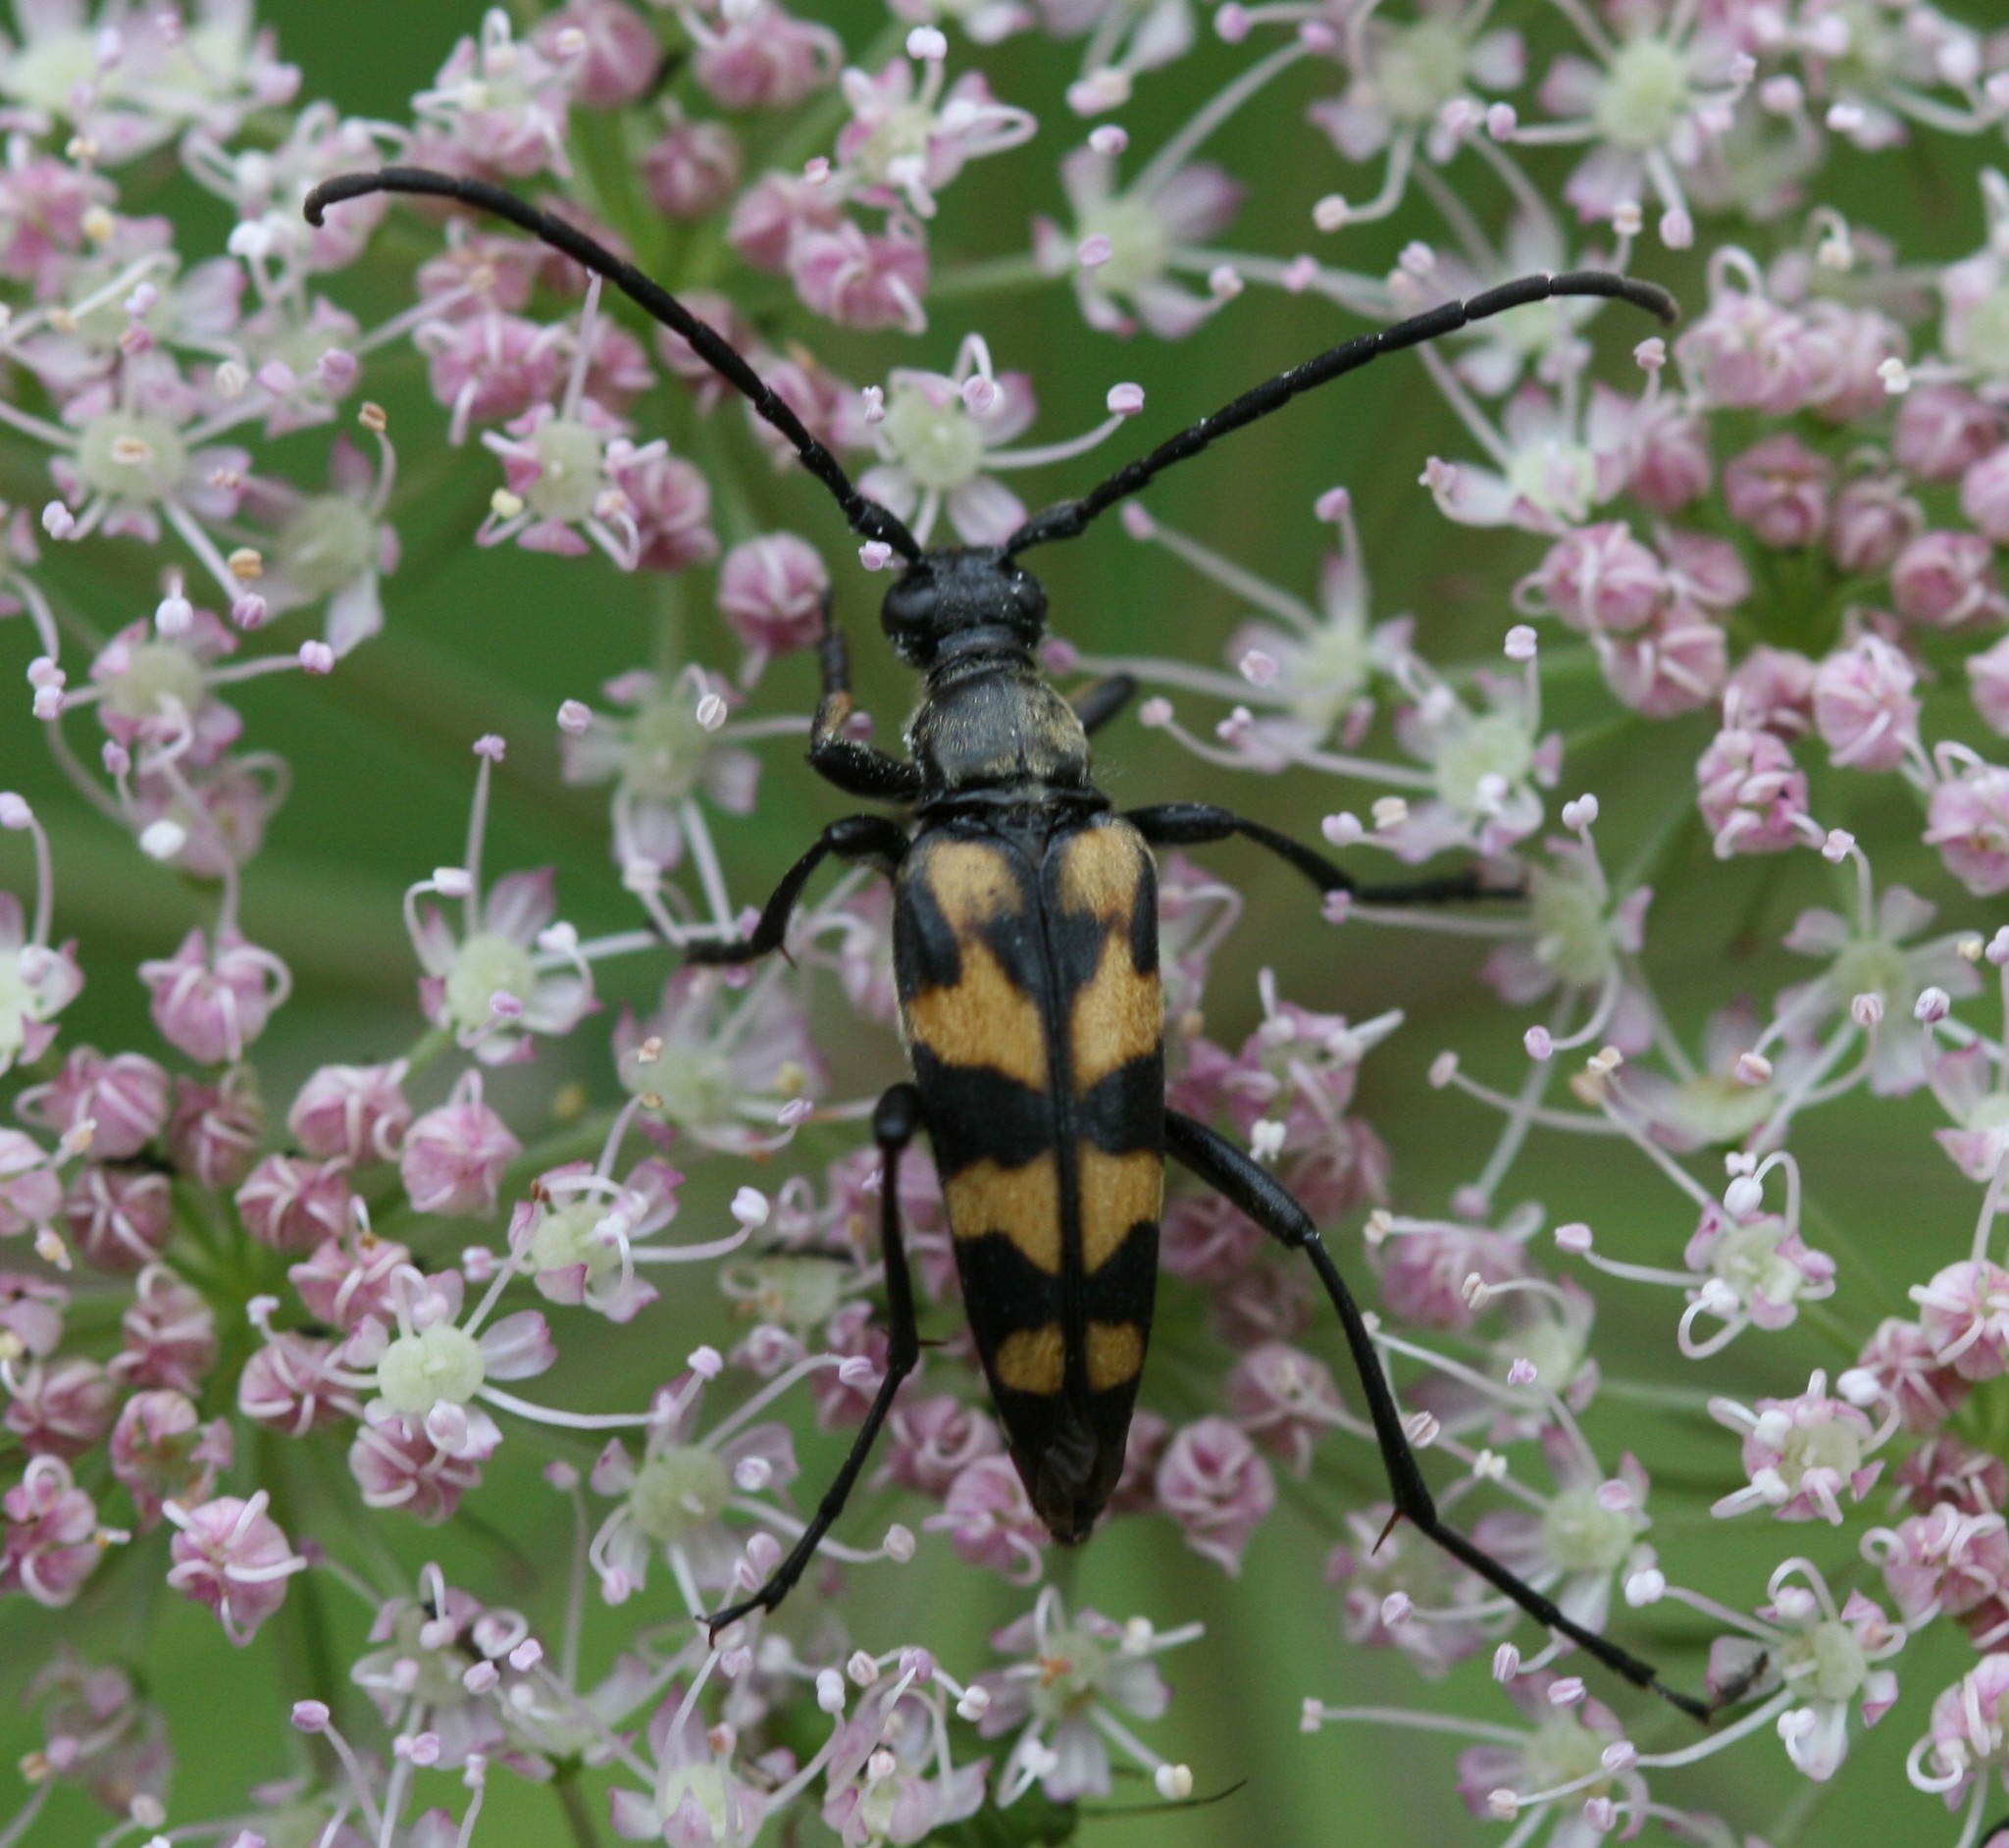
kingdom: Animalia
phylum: Arthropoda
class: Insecta
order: Coleoptera
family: Cerambycidae
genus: Leptura
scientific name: Leptura quadrifasciata
